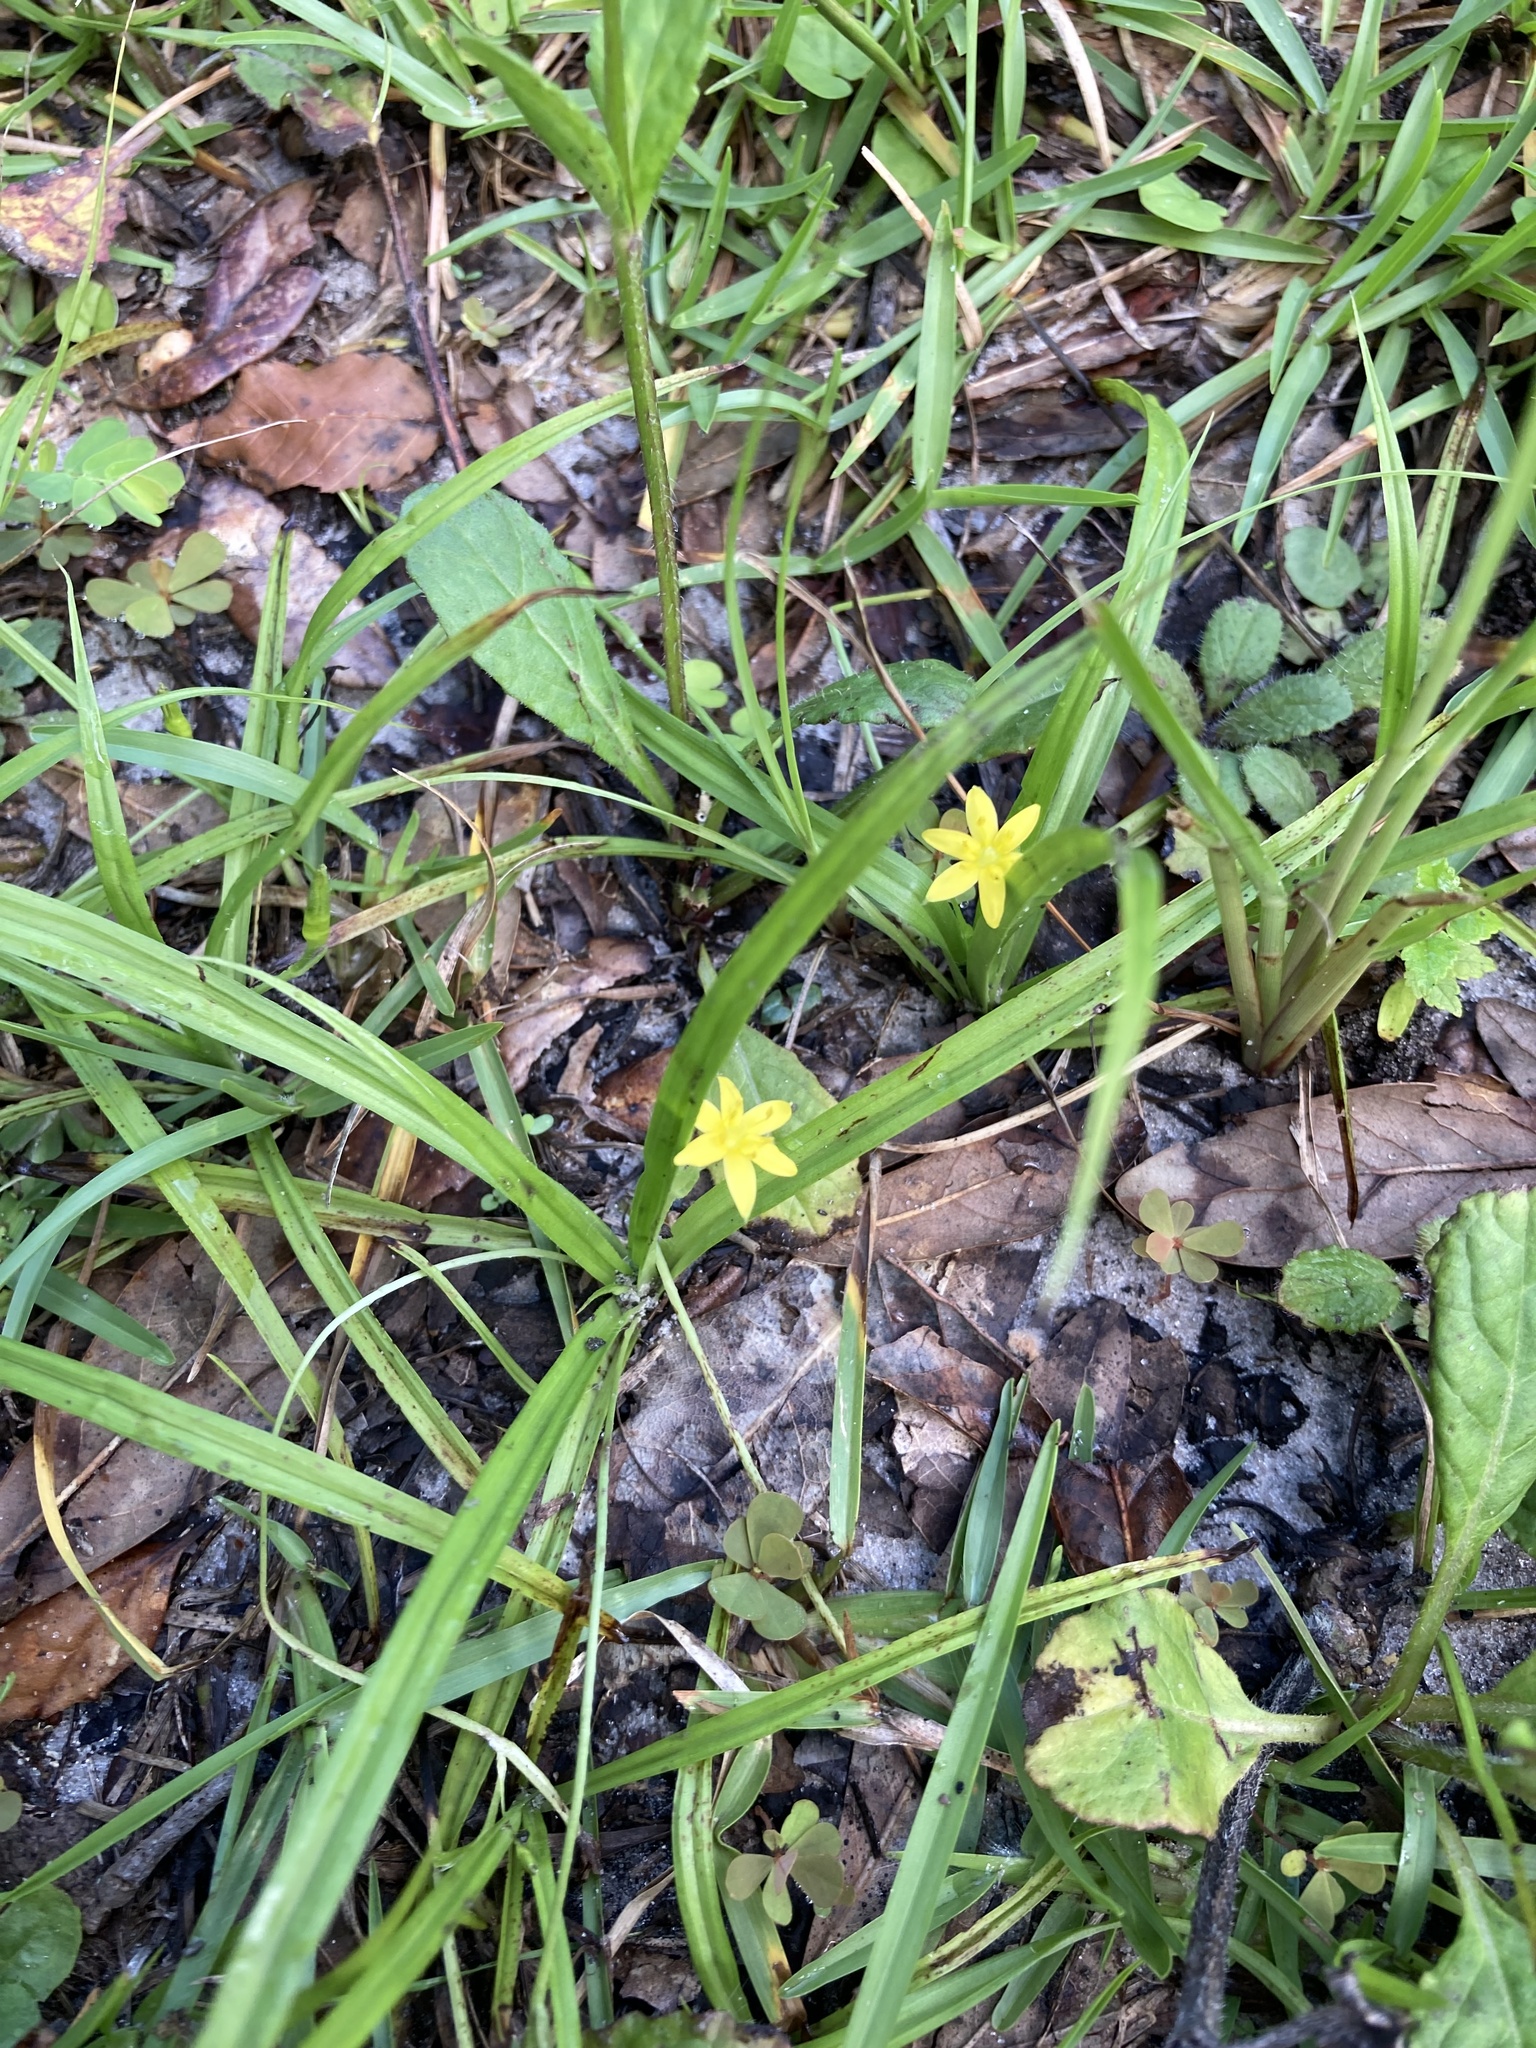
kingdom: Plantae
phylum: Tracheophyta
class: Liliopsida
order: Asparagales
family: Hypoxidaceae
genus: Hypoxis
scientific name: Hypoxis curtissii
